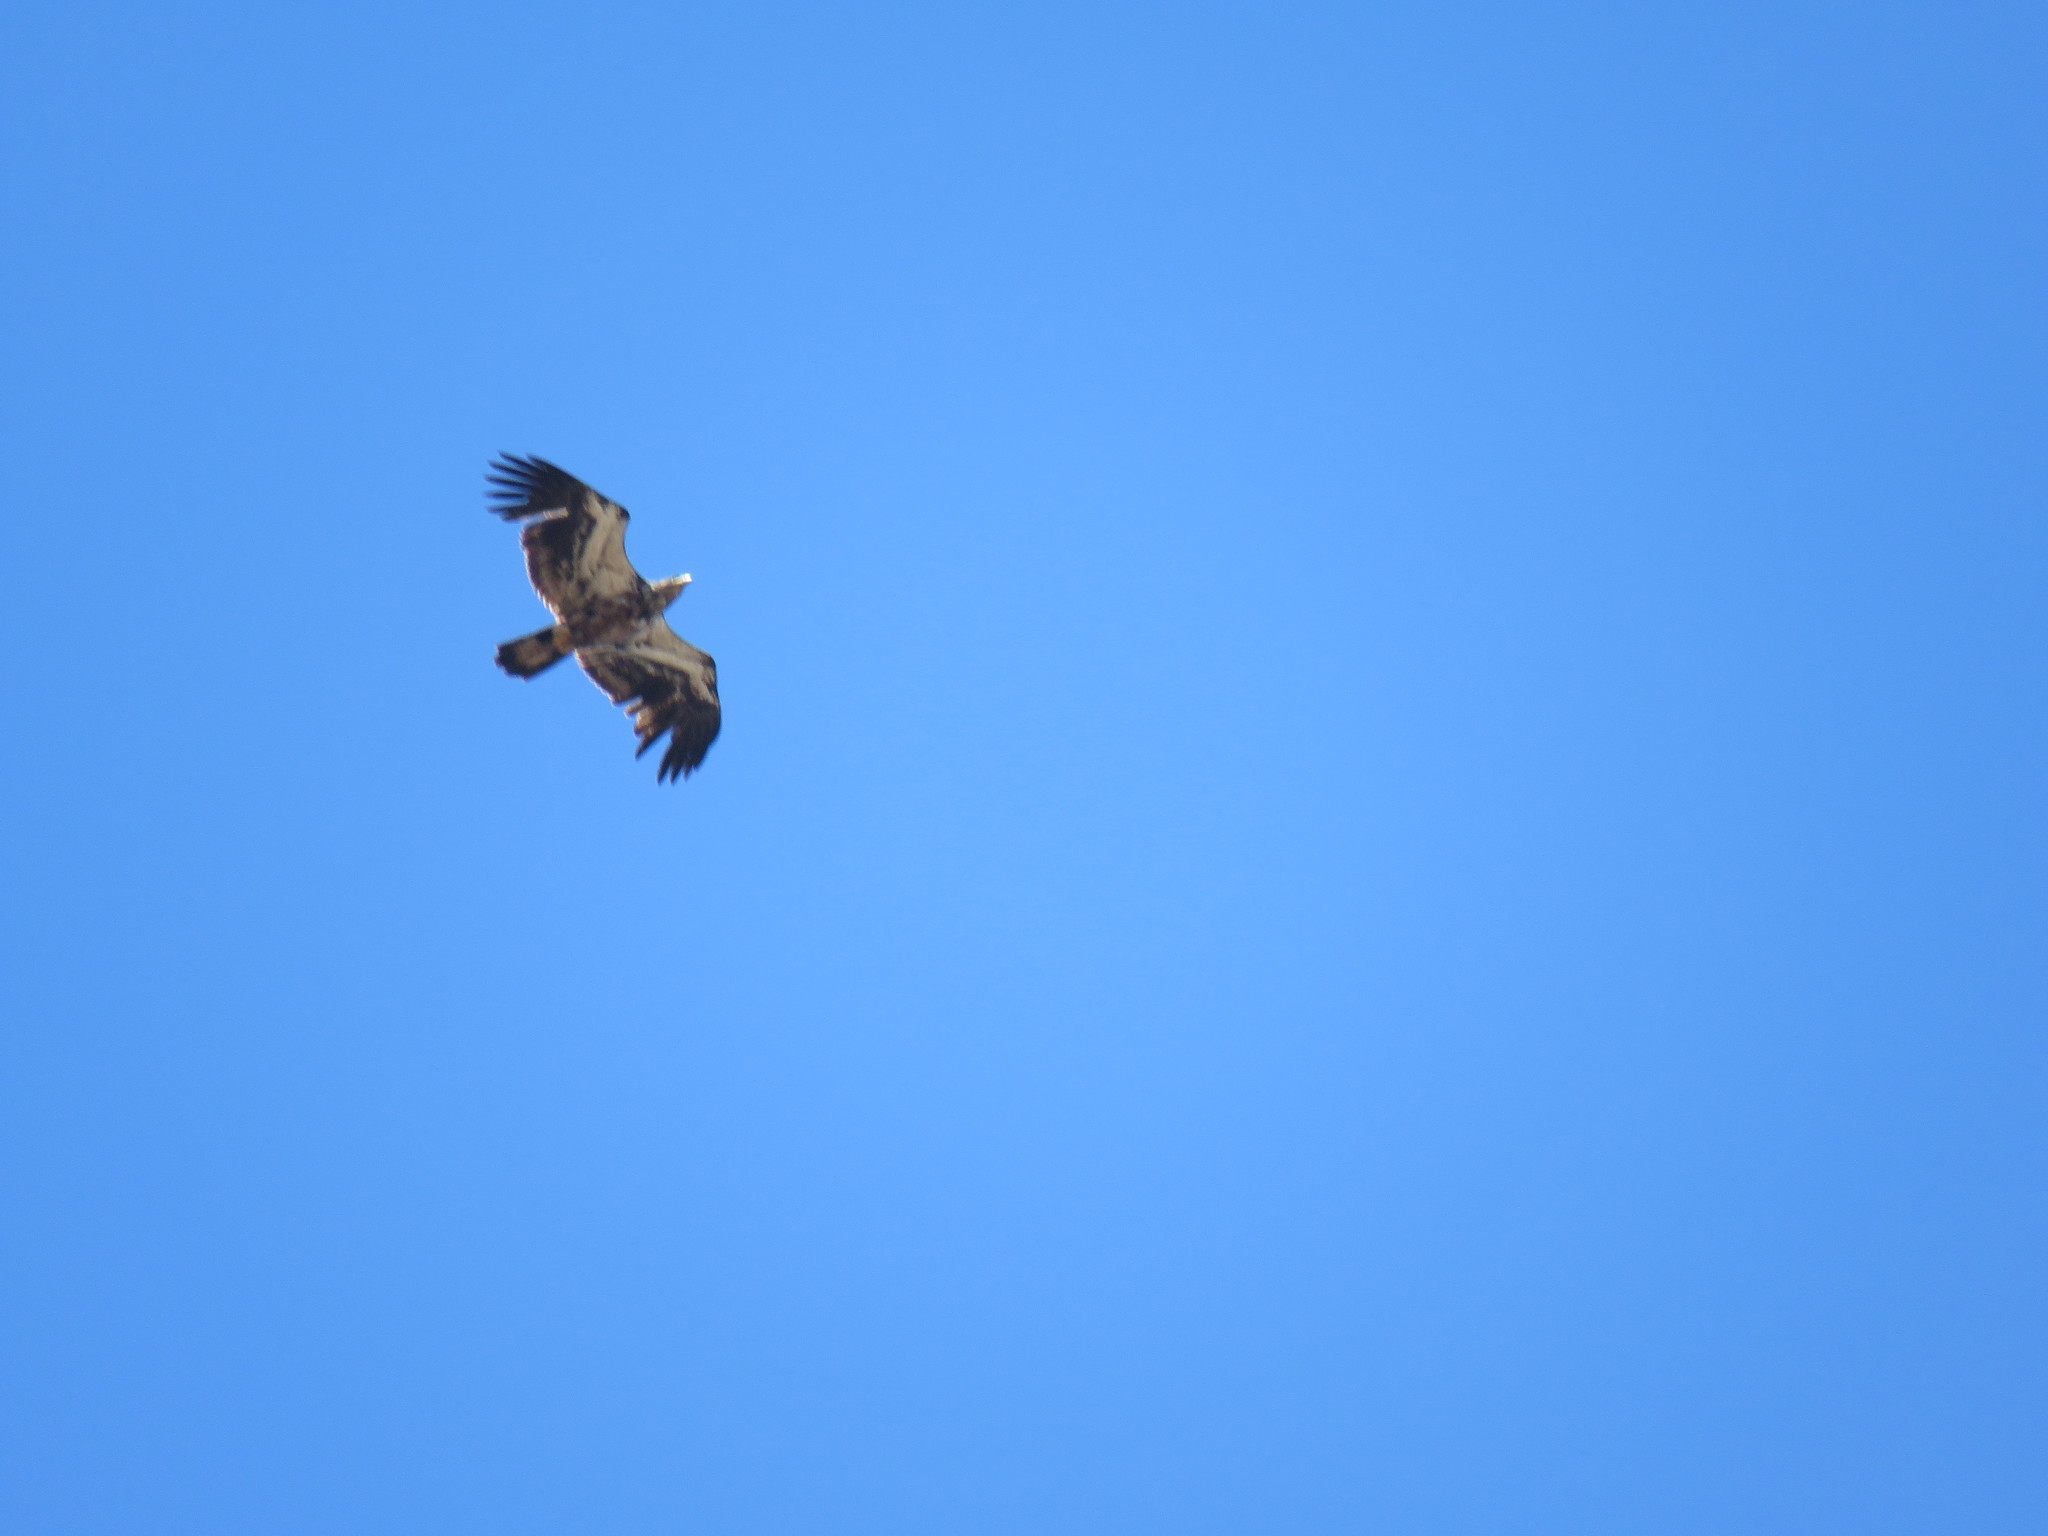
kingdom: Animalia
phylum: Chordata
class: Aves
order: Accipitriformes
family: Accipitridae
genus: Haliaeetus
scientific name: Haliaeetus leucocephalus
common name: Bald eagle
